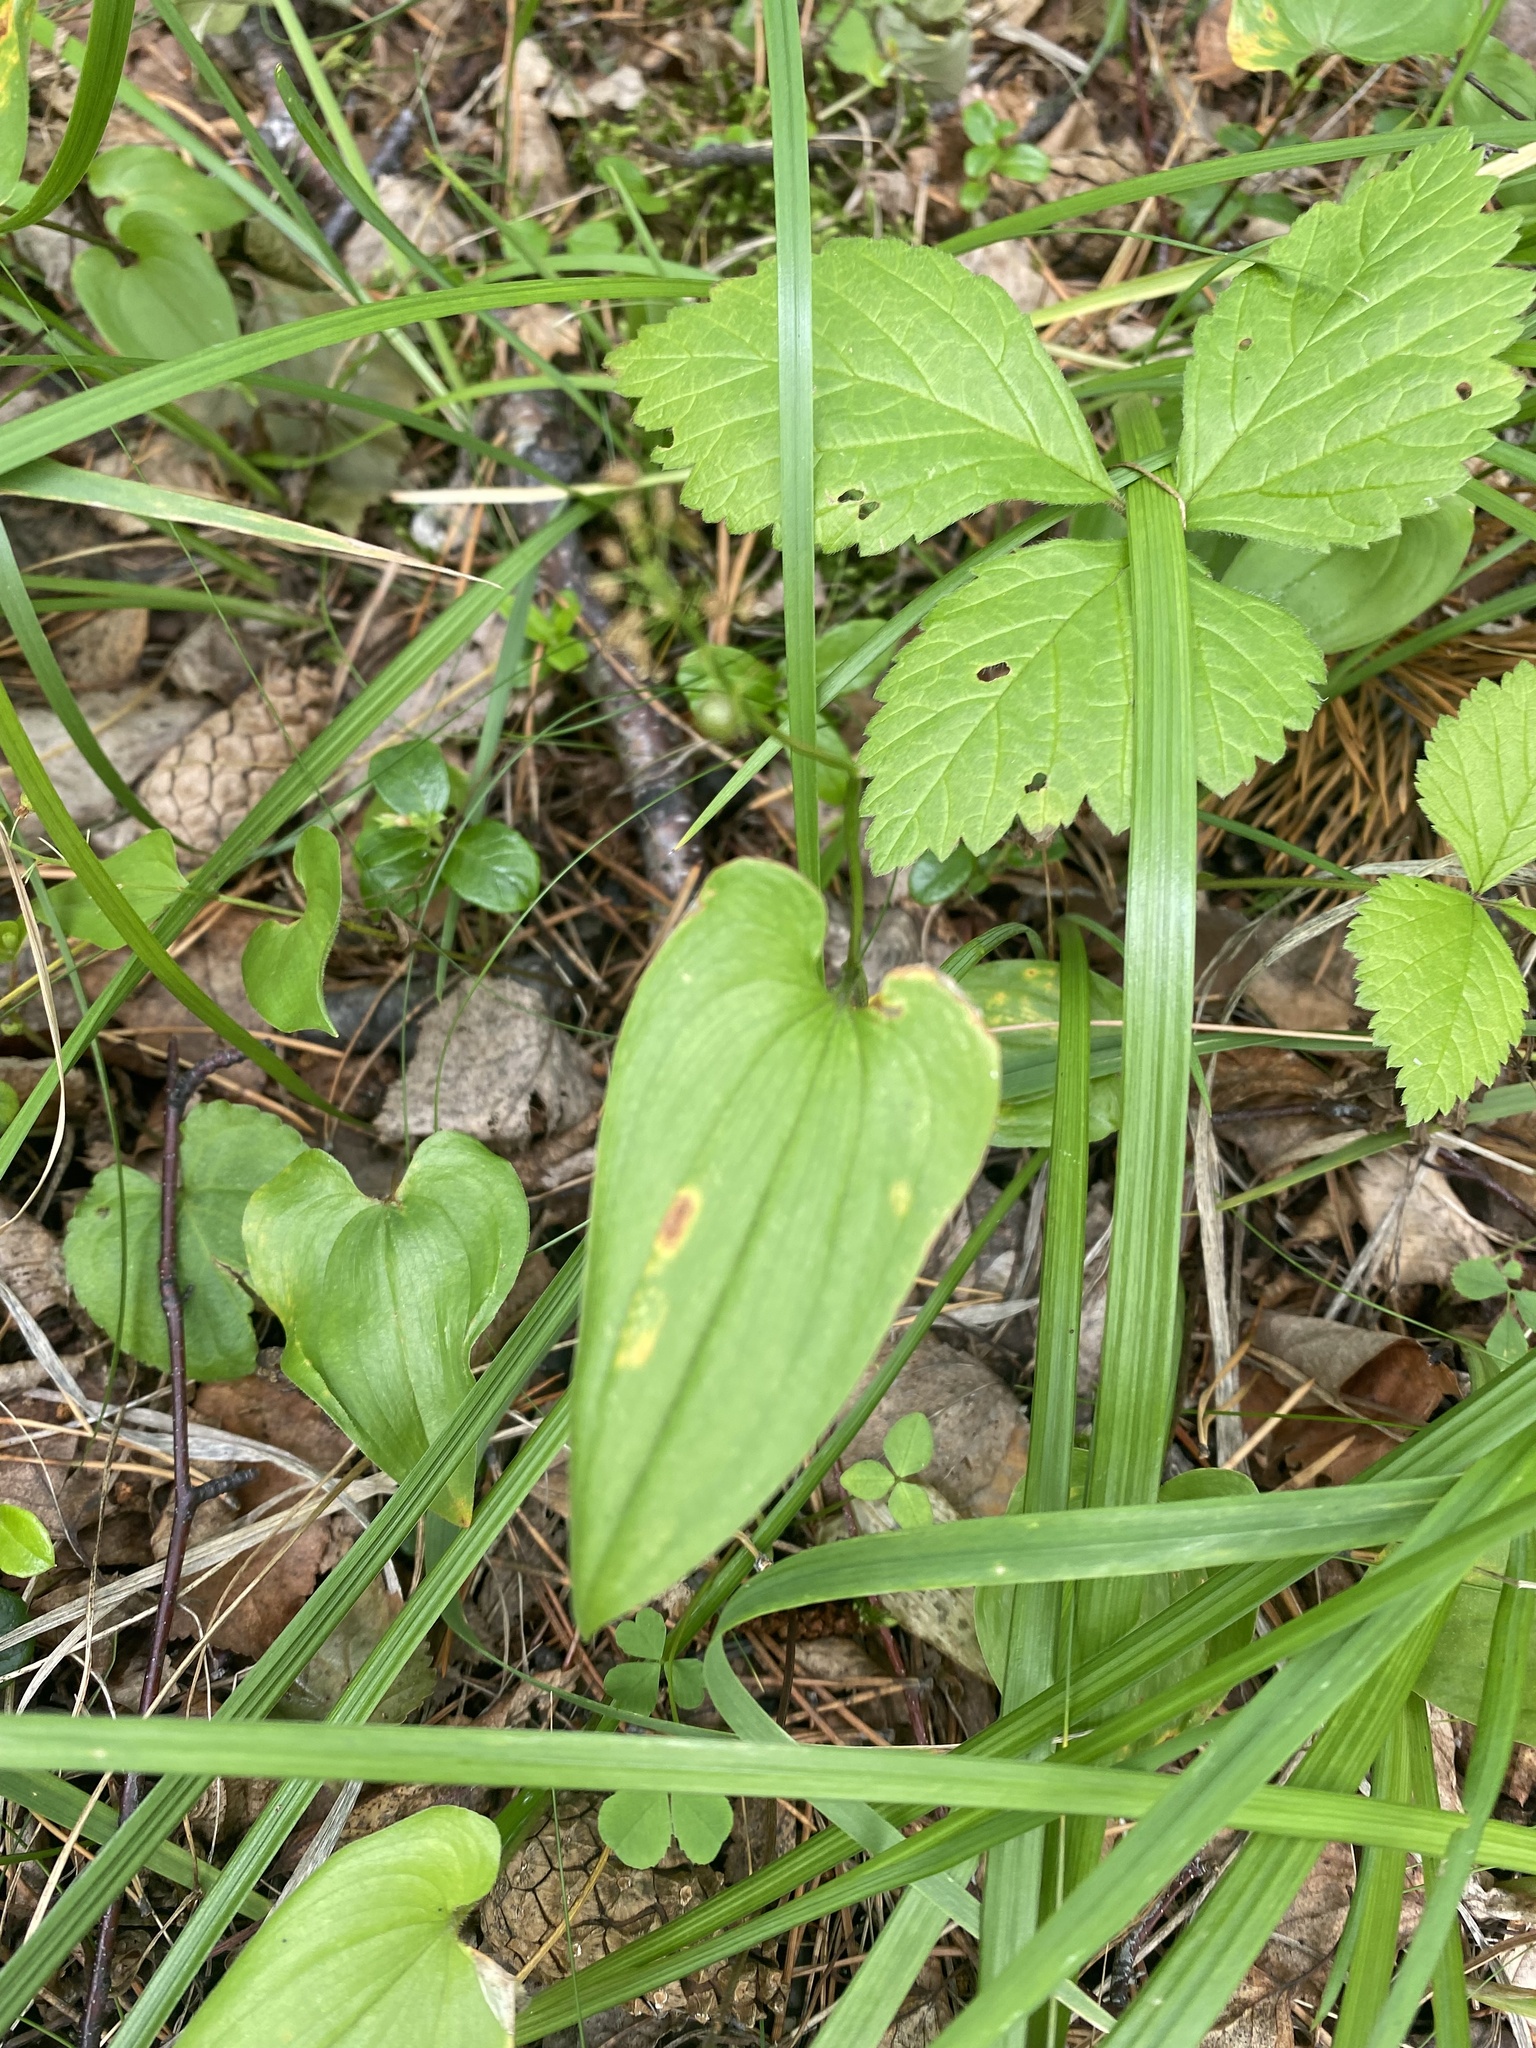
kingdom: Plantae
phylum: Tracheophyta
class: Liliopsida
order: Asparagales
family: Asparagaceae
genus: Maianthemum
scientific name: Maianthemum bifolium
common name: May lily
